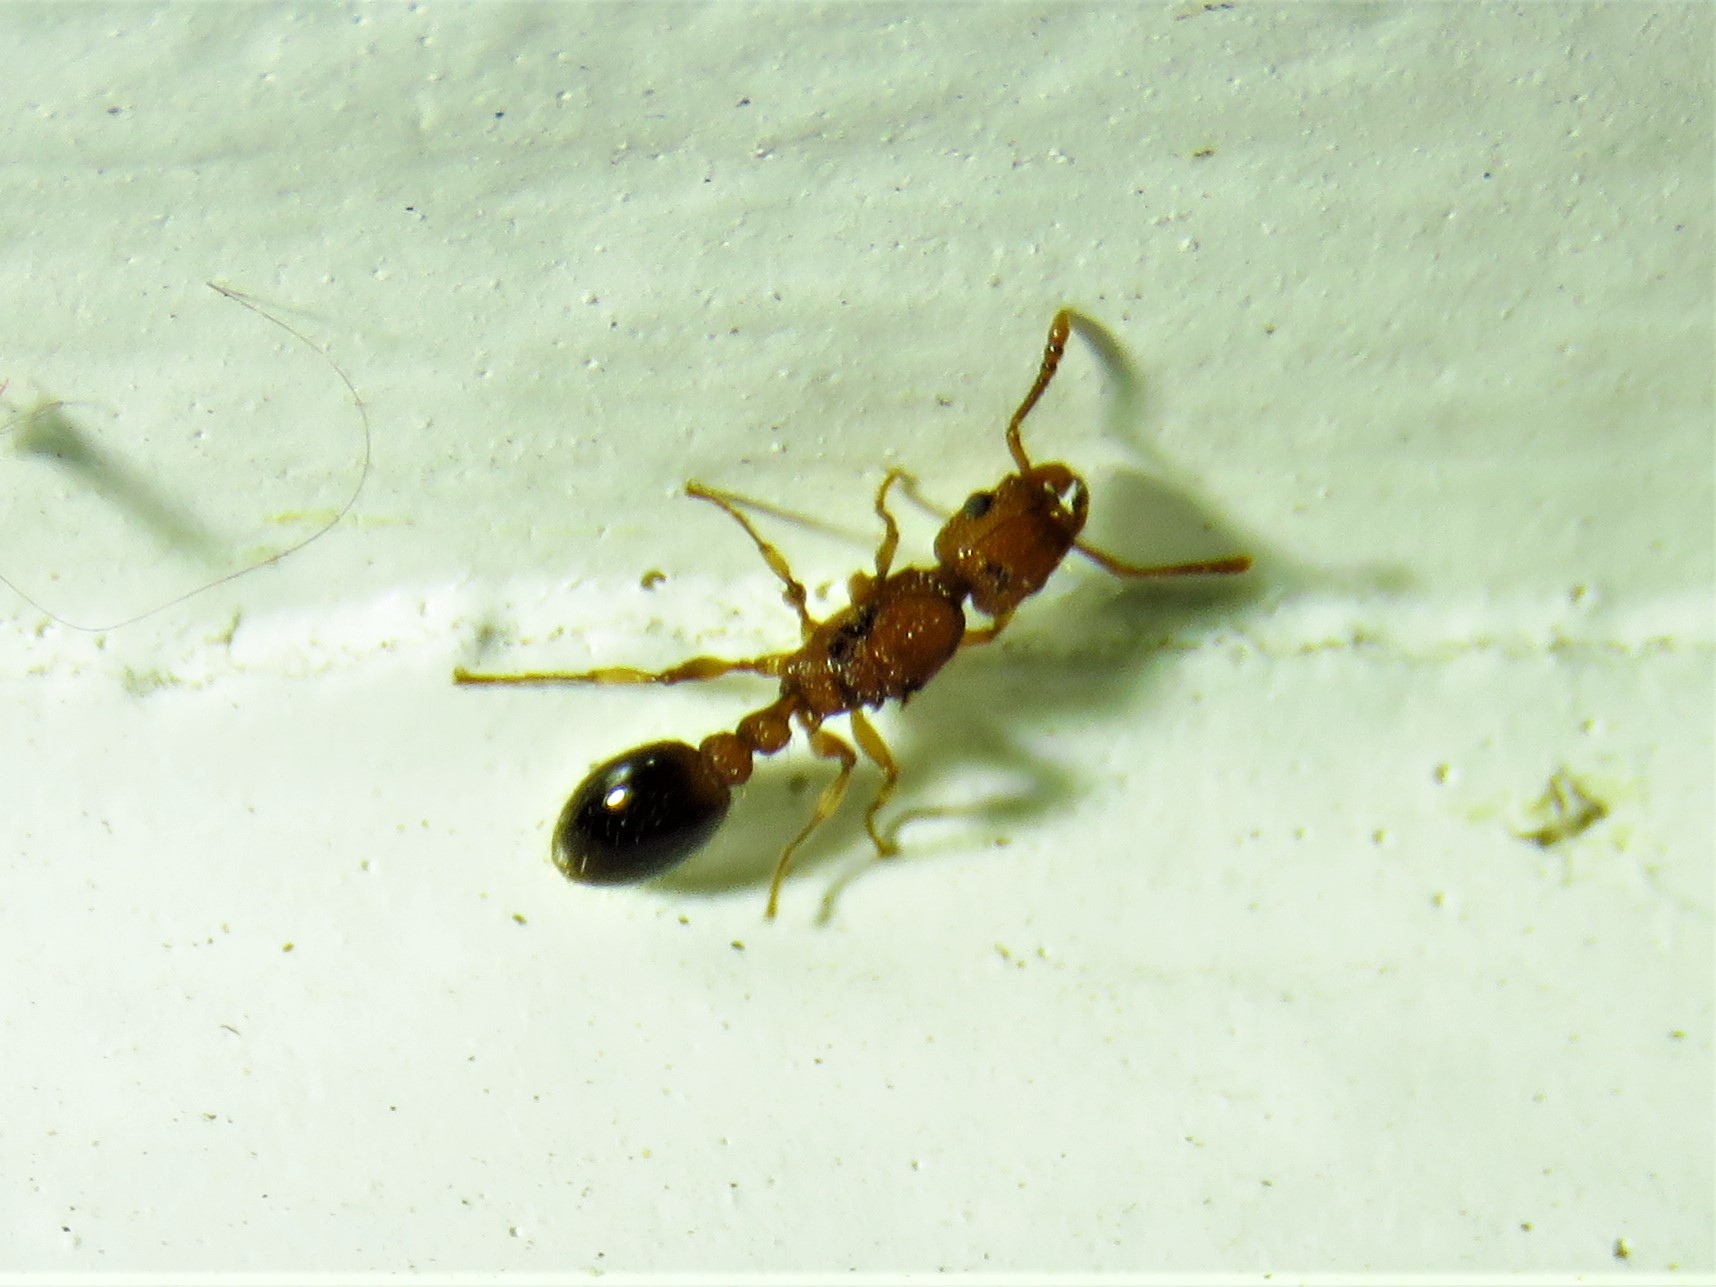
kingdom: Animalia
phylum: Arthropoda
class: Insecta
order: Hymenoptera
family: Formicidae
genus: Tetramorium
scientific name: Tetramorium bicarinatum
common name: Guinea ant
